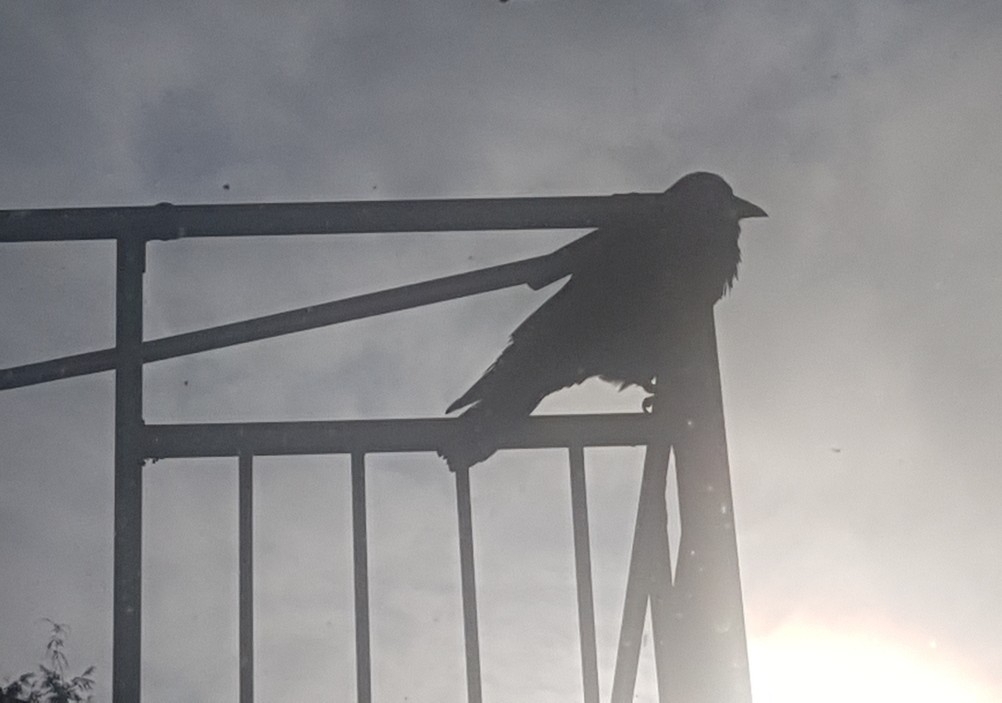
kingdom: Animalia
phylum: Chordata
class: Aves
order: Passeriformes
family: Corvidae
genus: Corvus
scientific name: Corvus brachyrhynchos
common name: American crow
